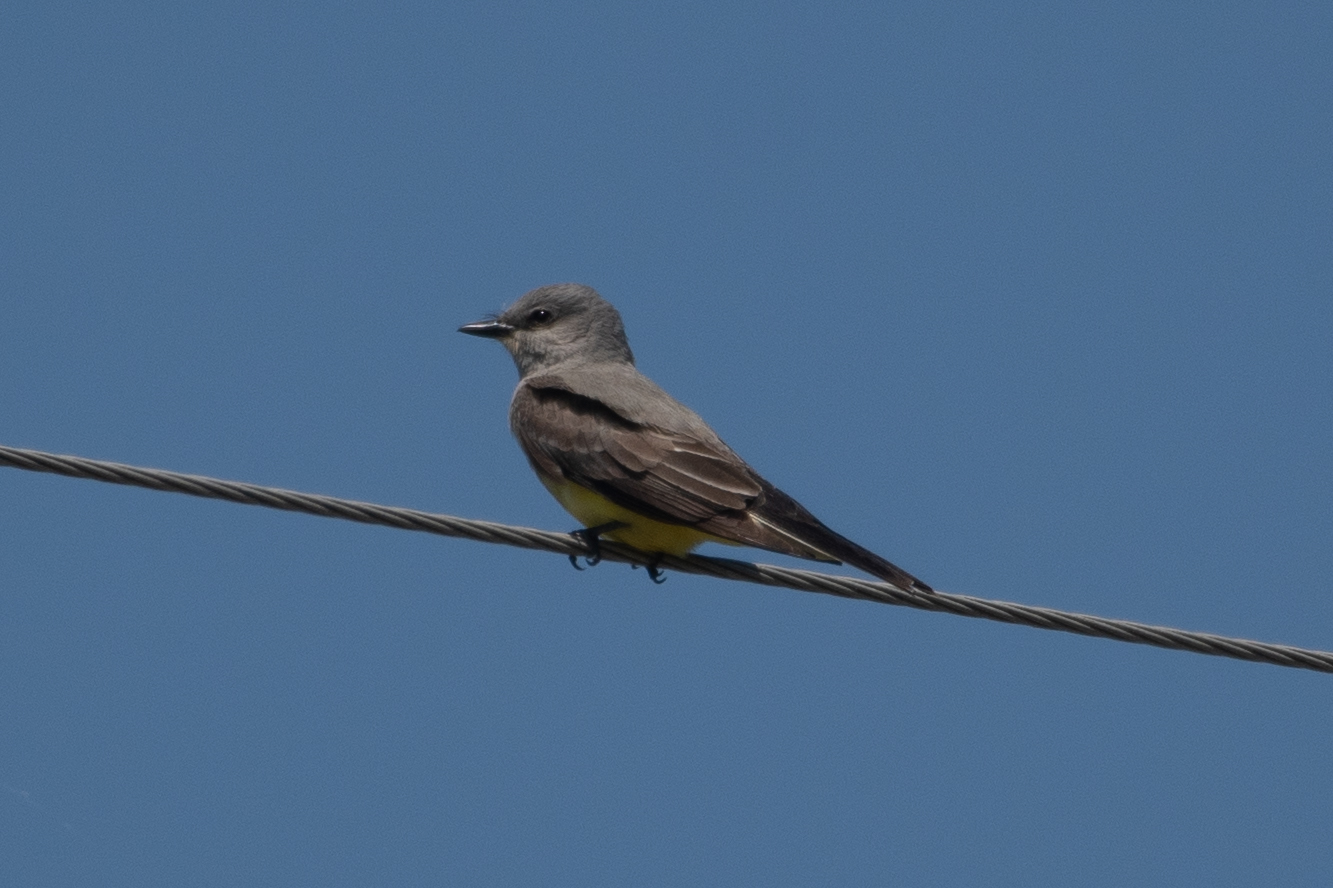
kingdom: Animalia
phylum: Chordata
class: Aves
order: Passeriformes
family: Tyrannidae
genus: Tyrannus
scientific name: Tyrannus verticalis
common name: Western kingbird
